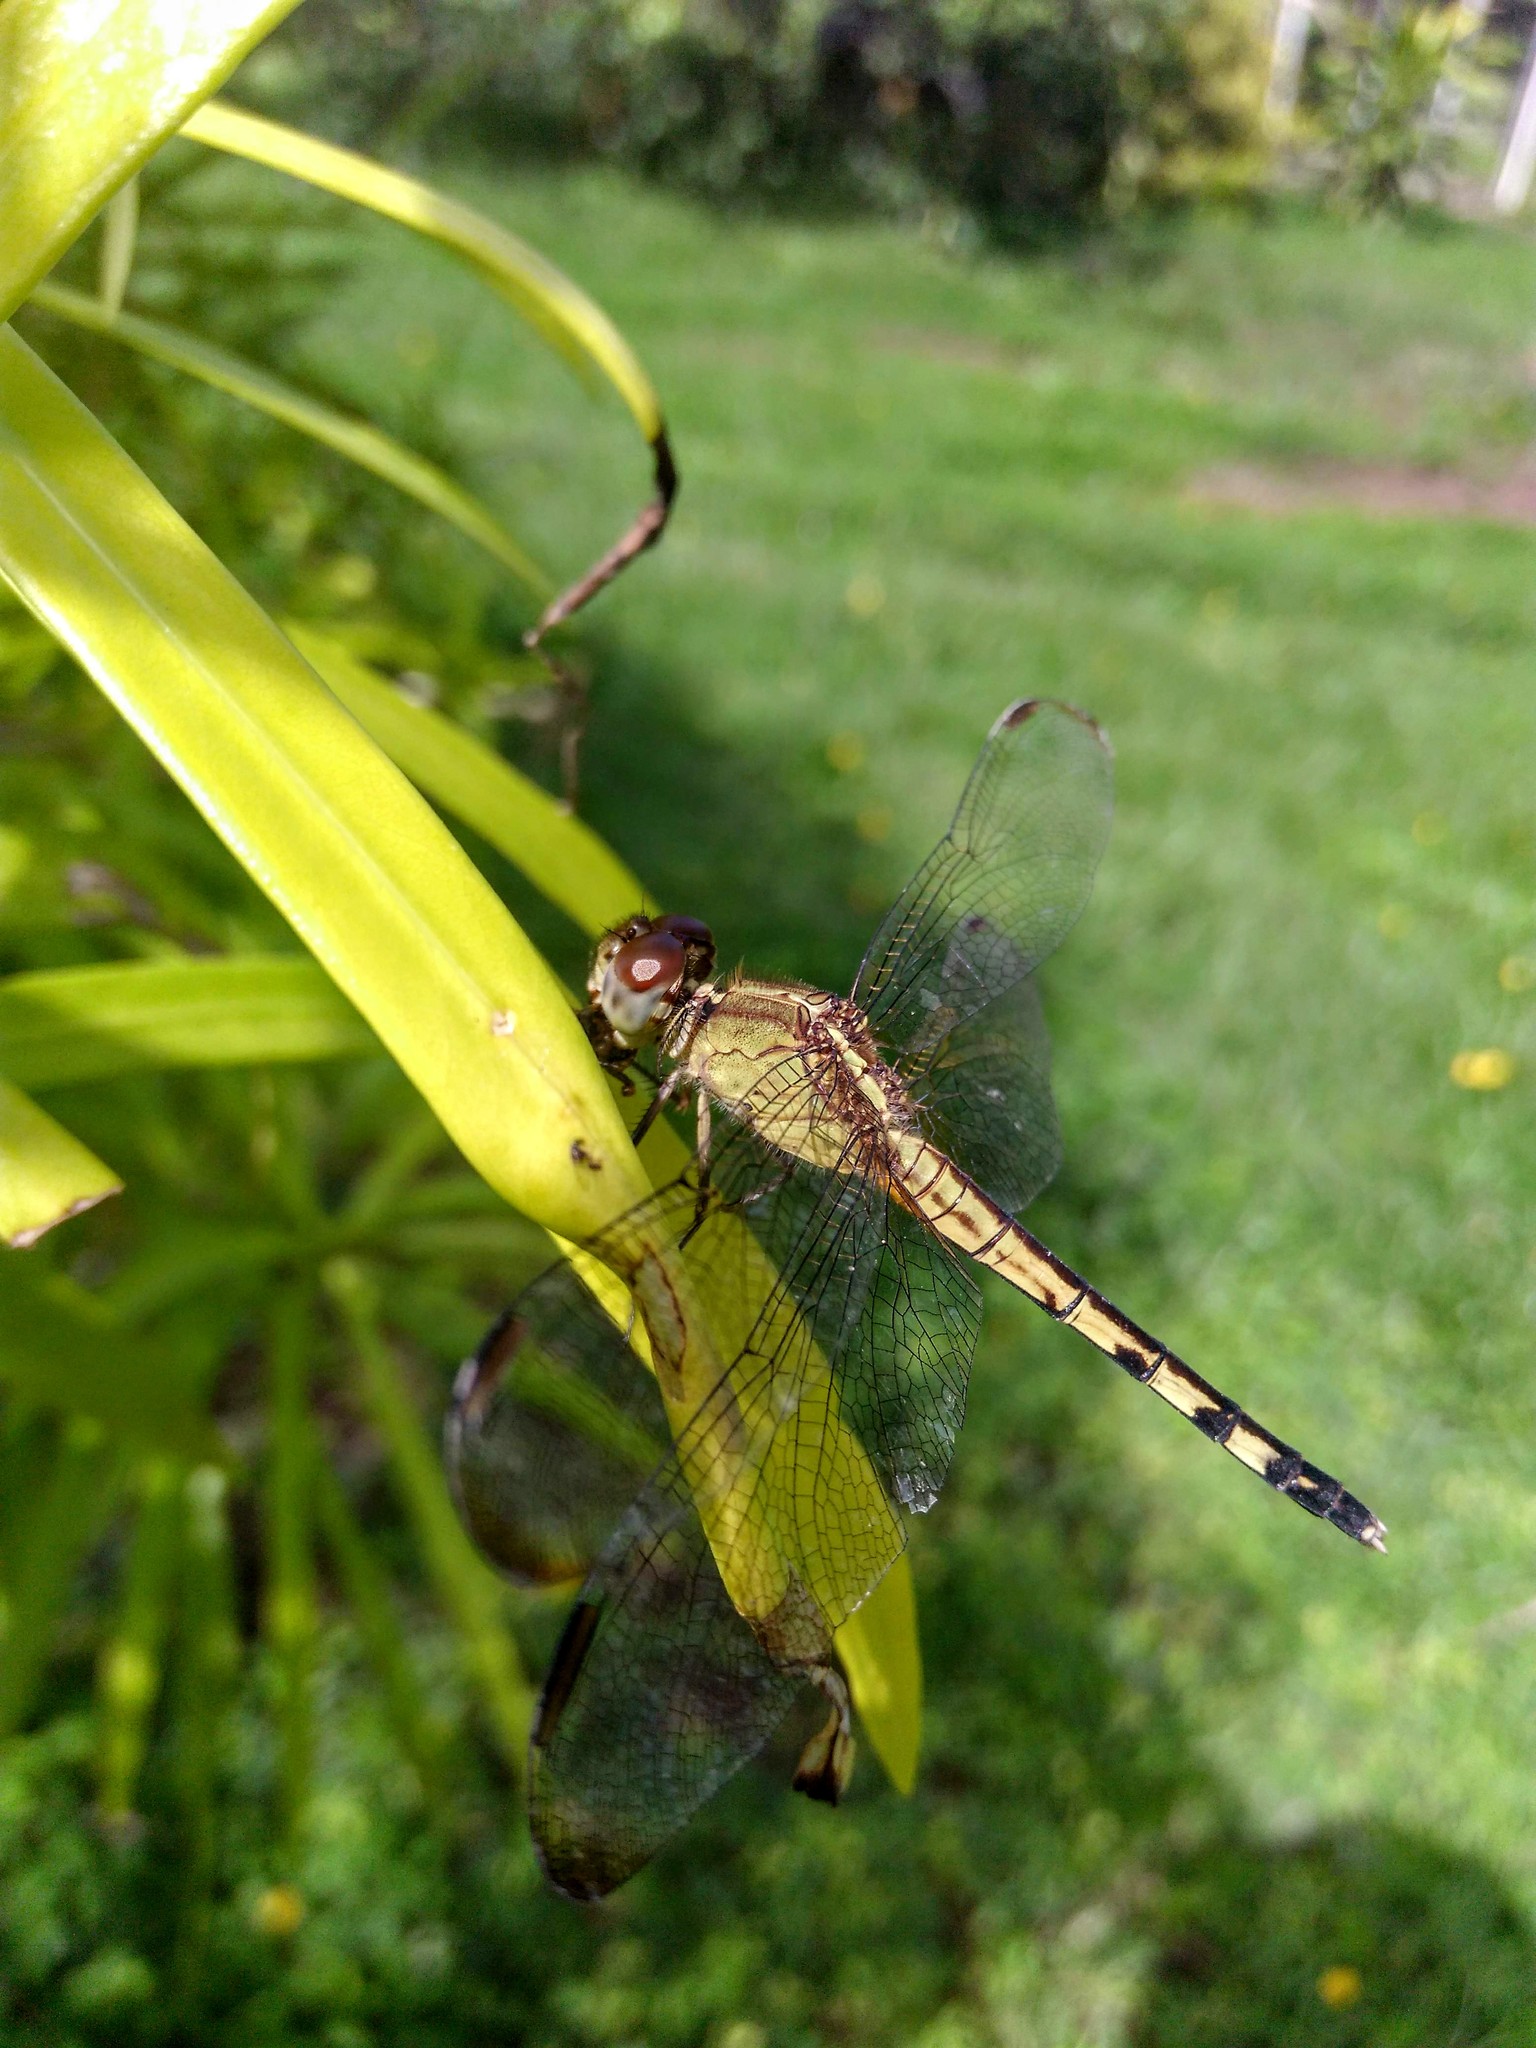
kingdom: Animalia
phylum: Arthropoda
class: Insecta
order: Odonata
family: Libellulidae
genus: Erythrodiplax
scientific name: Erythrodiplax umbrata
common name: Band-winged dragonlet
